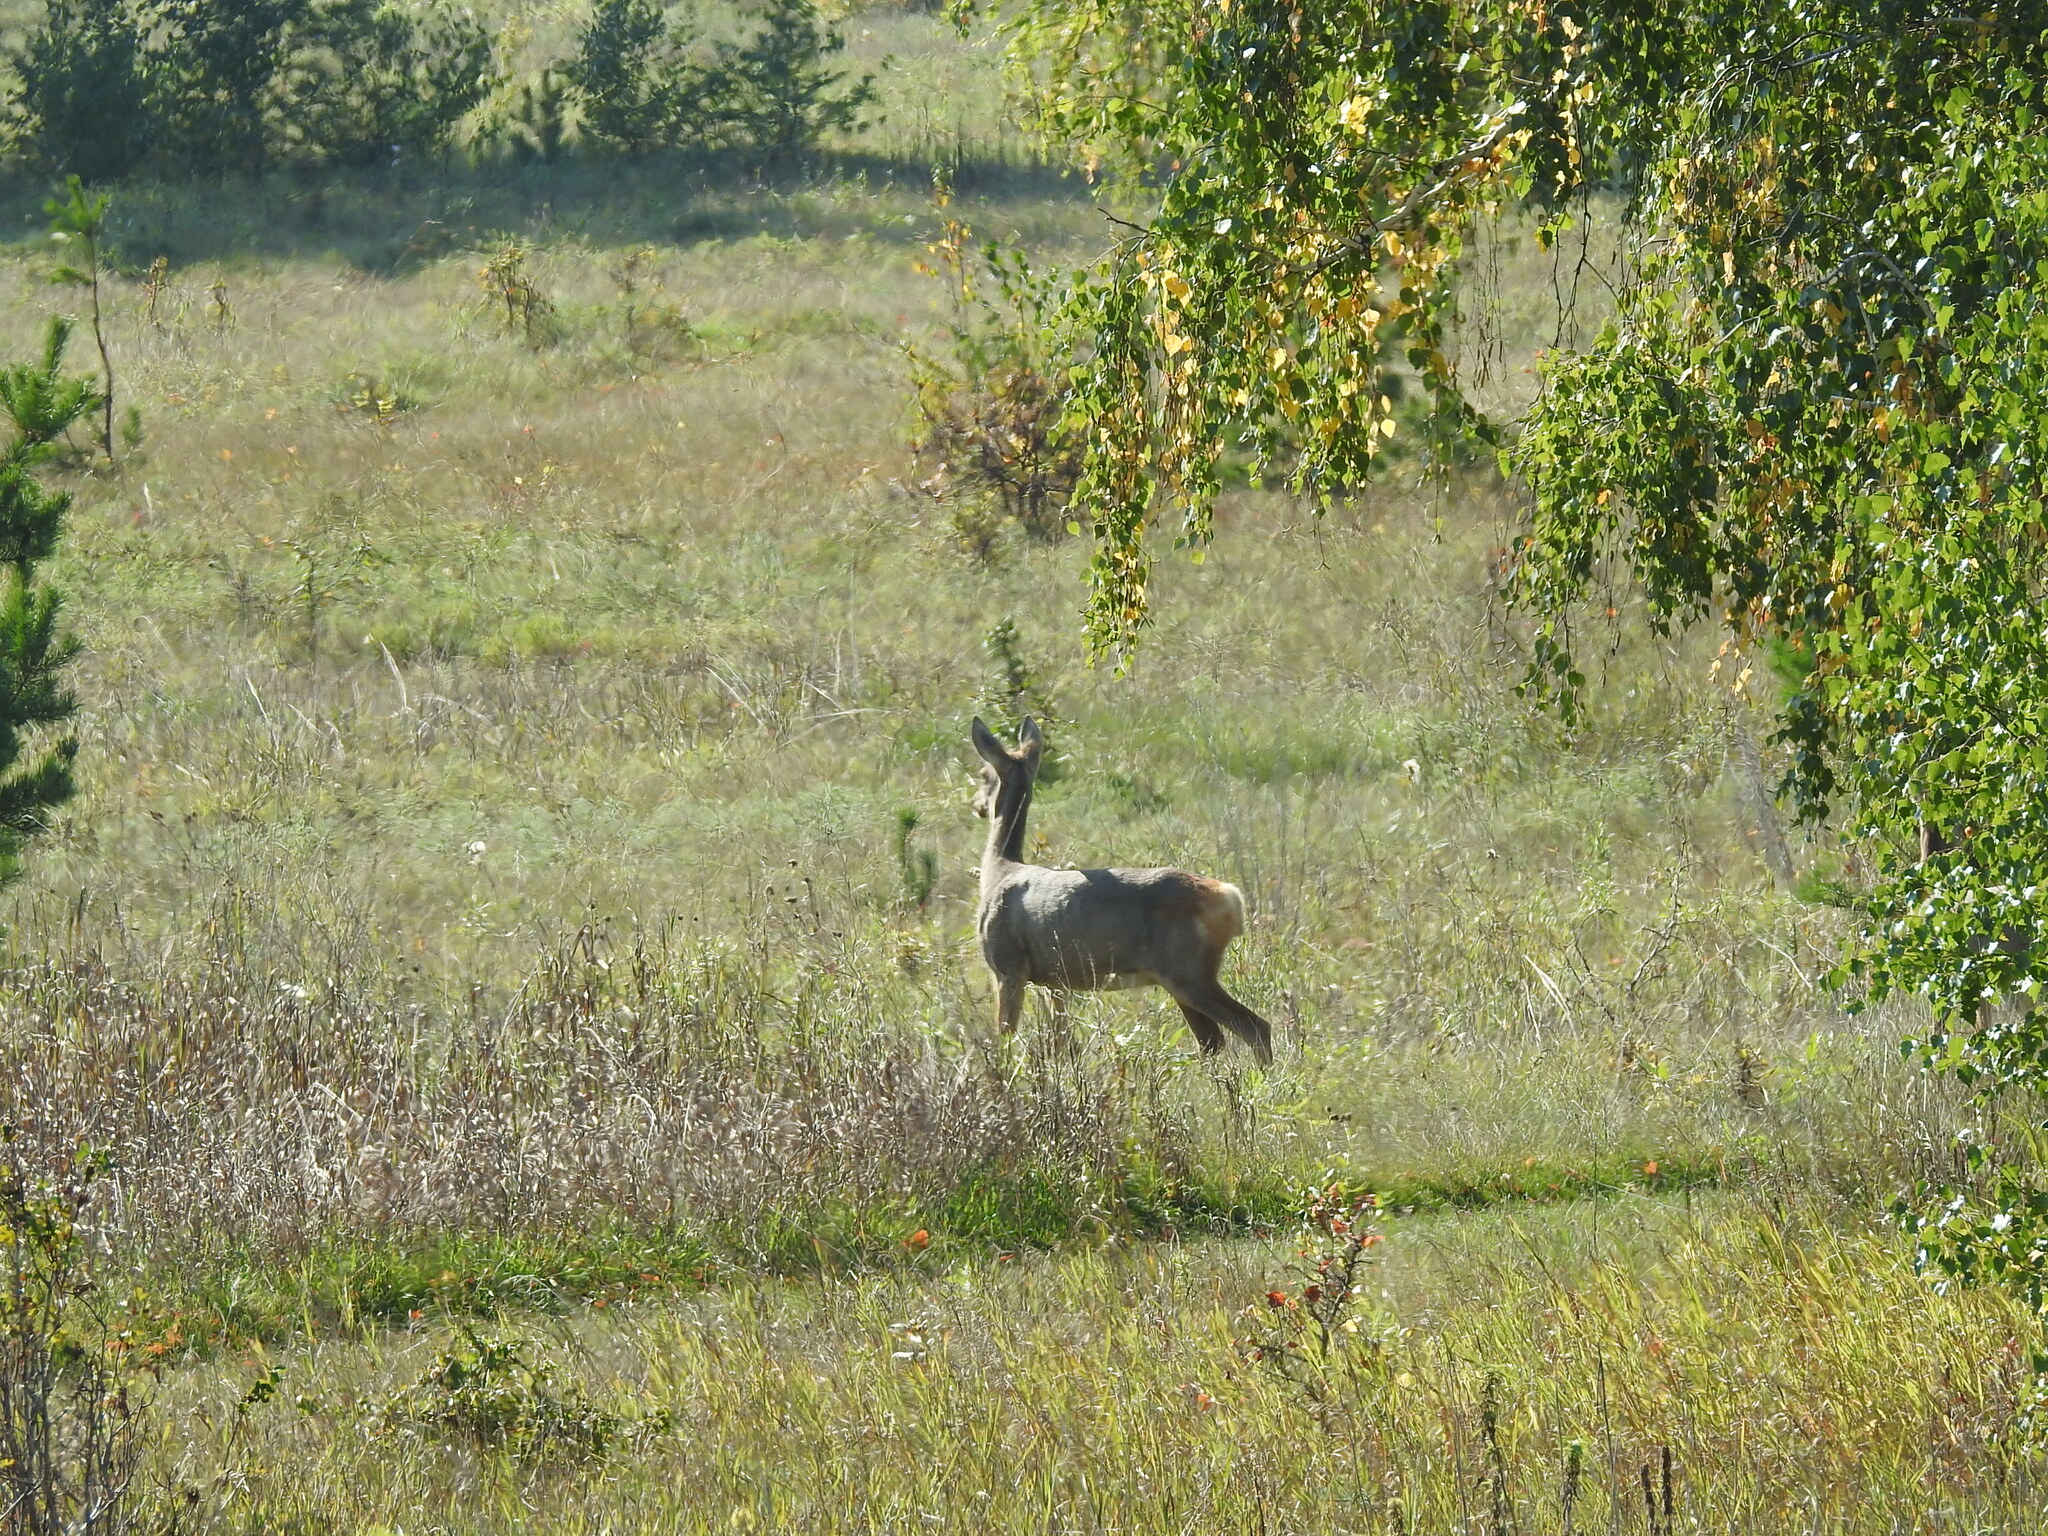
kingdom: Animalia
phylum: Chordata
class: Mammalia
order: Artiodactyla
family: Cervidae
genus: Capreolus
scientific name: Capreolus pygargus
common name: Siberian roe
